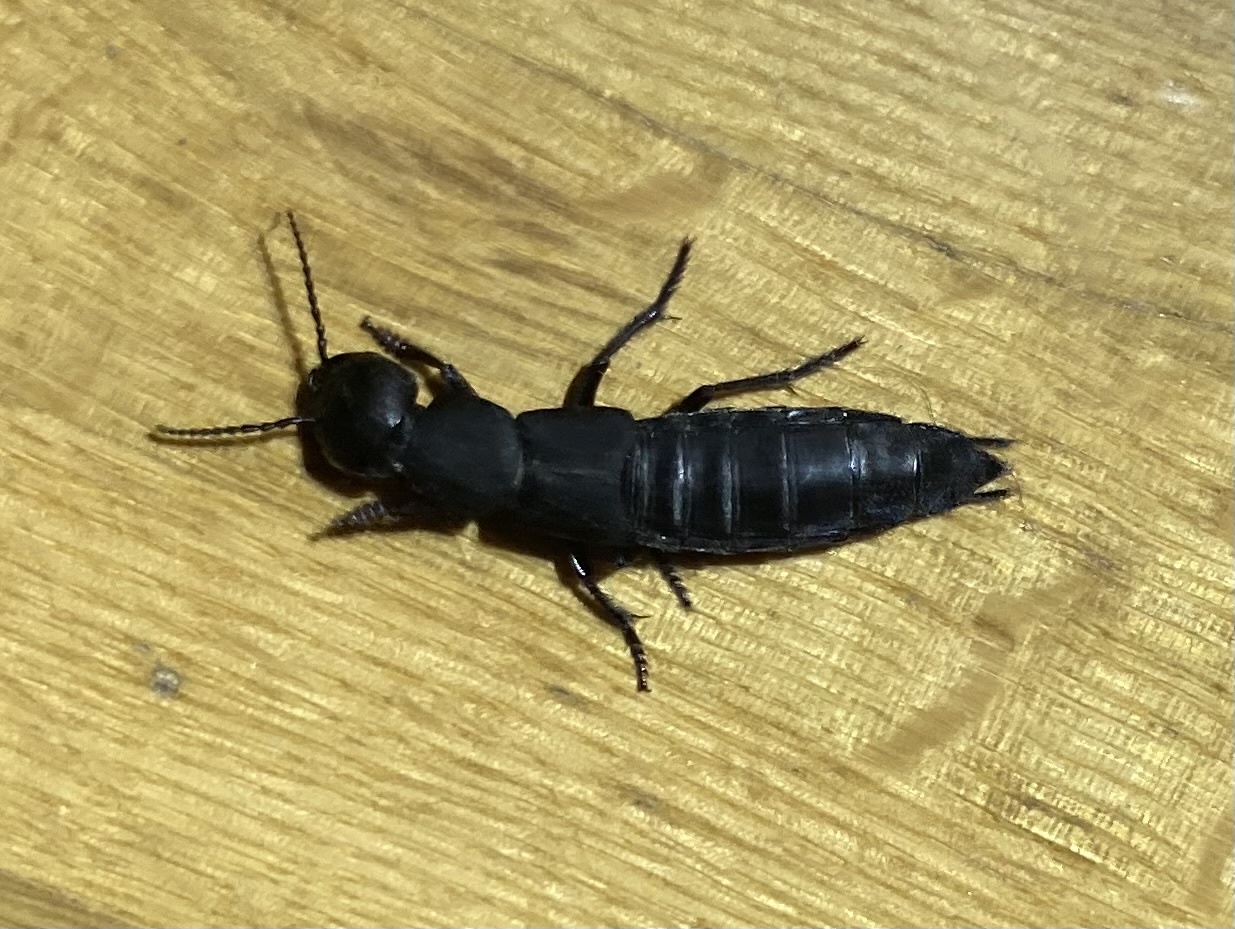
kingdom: Animalia
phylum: Arthropoda
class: Insecta
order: Coleoptera
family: Staphylinidae
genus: Ocypus
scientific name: Ocypus olens
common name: Devil's coach-horse
